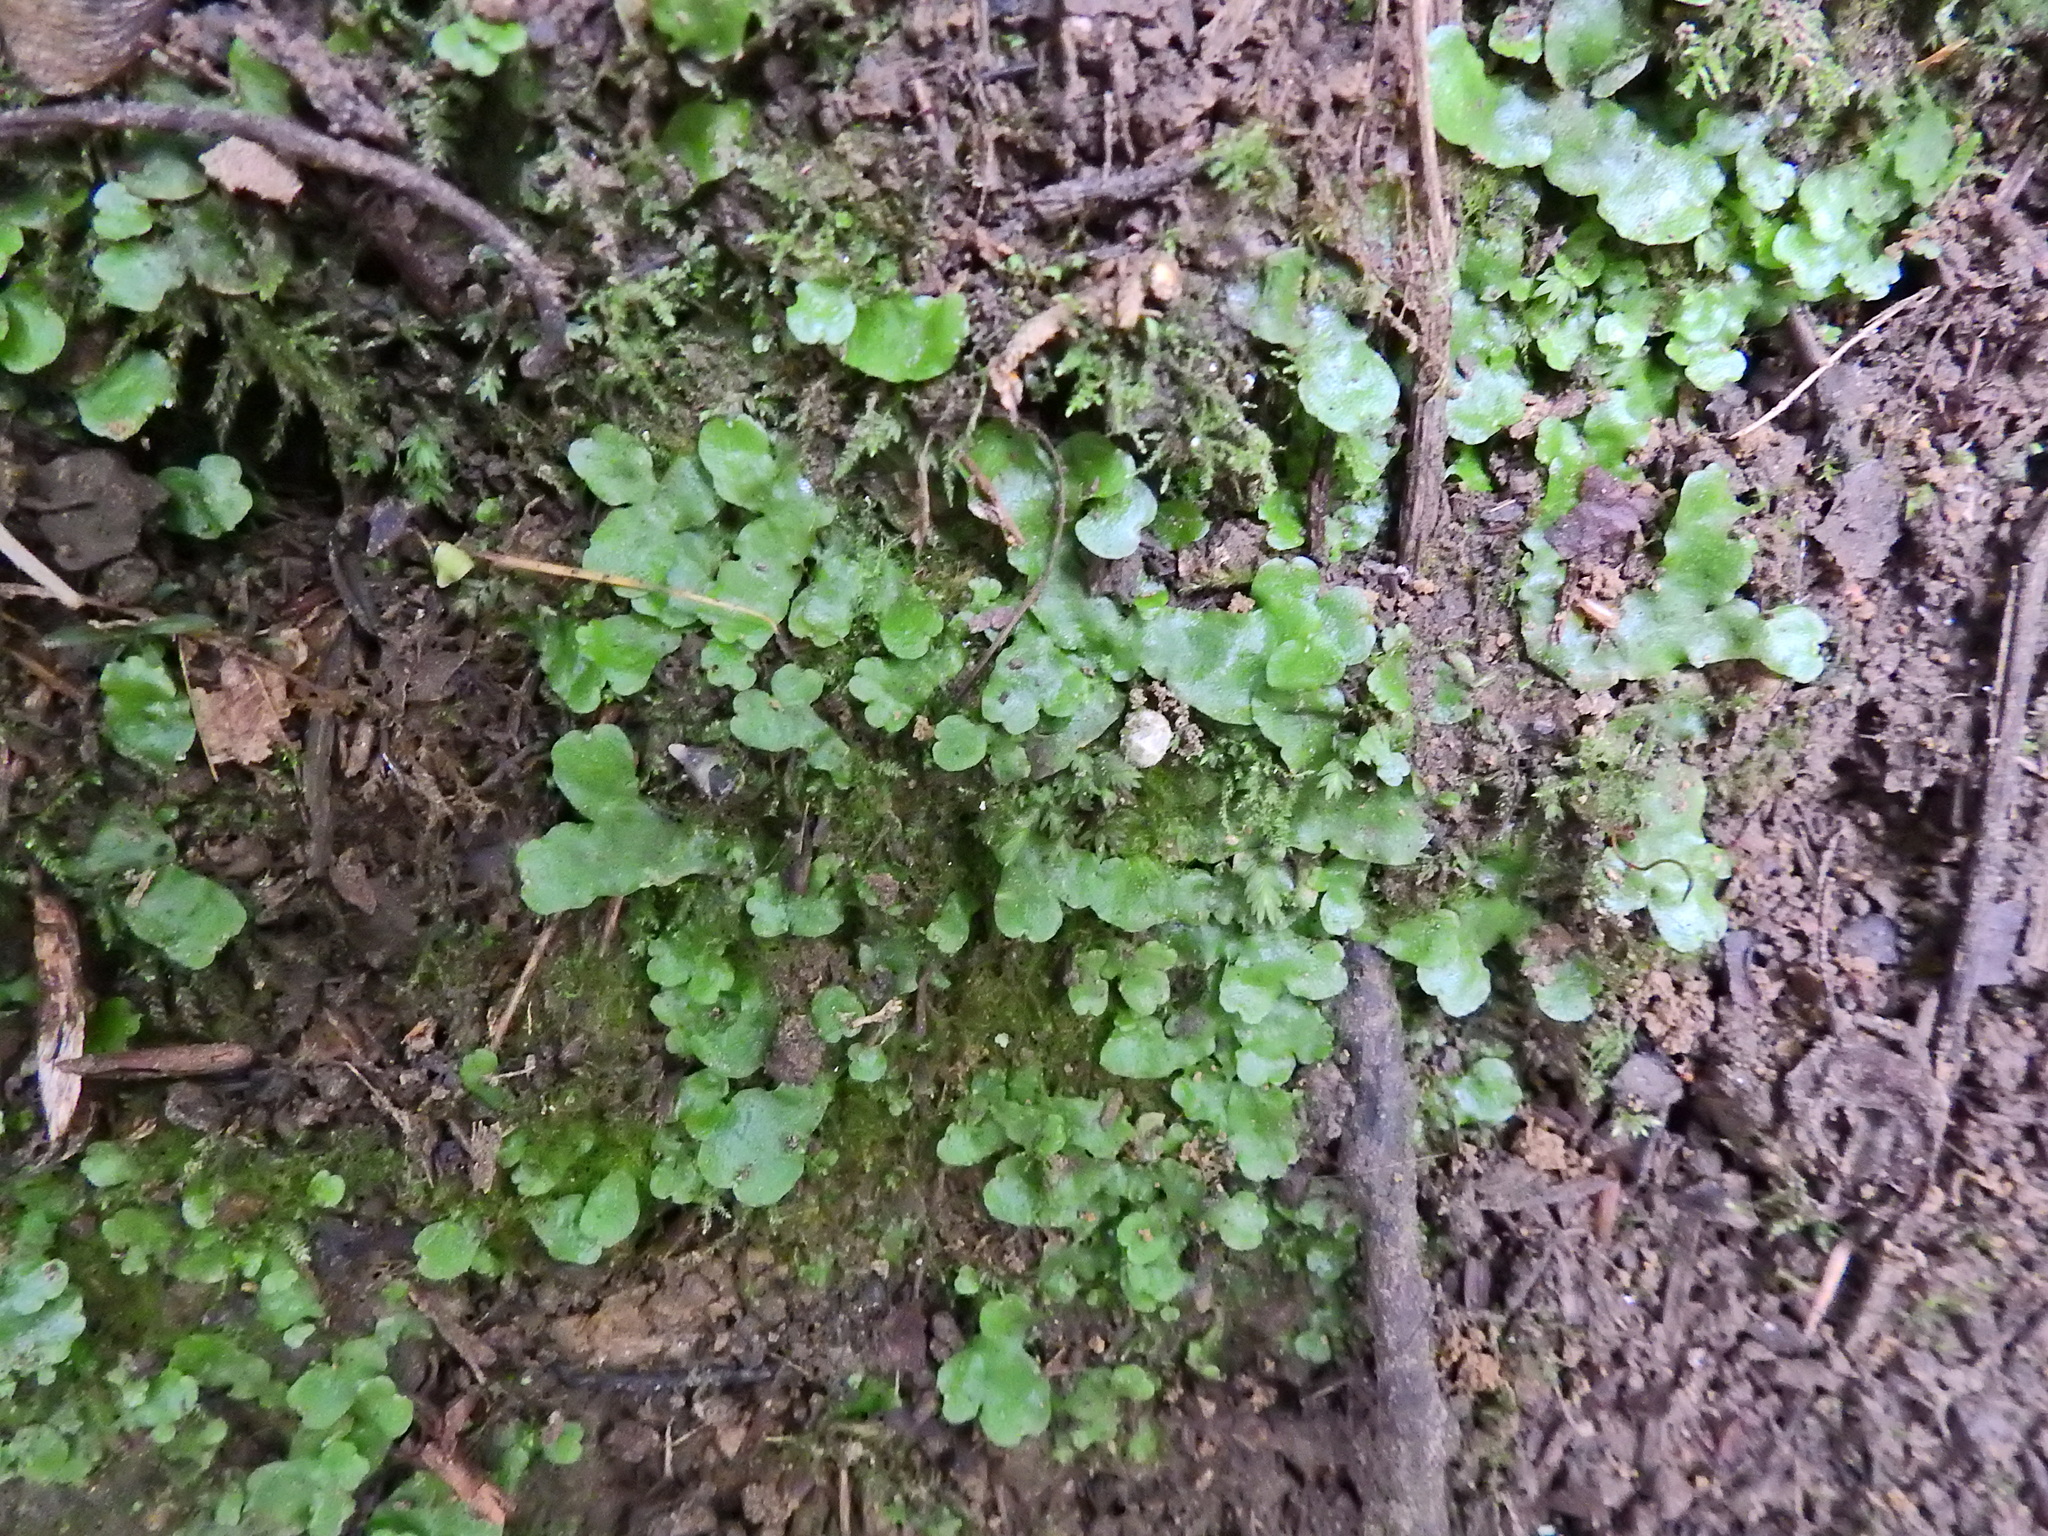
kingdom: Plantae
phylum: Marchantiophyta
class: Marchantiopsida
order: Lunulariales
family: Lunulariaceae
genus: Lunularia
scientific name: Lunularia cruciata
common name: Crescent-cup liverwort
